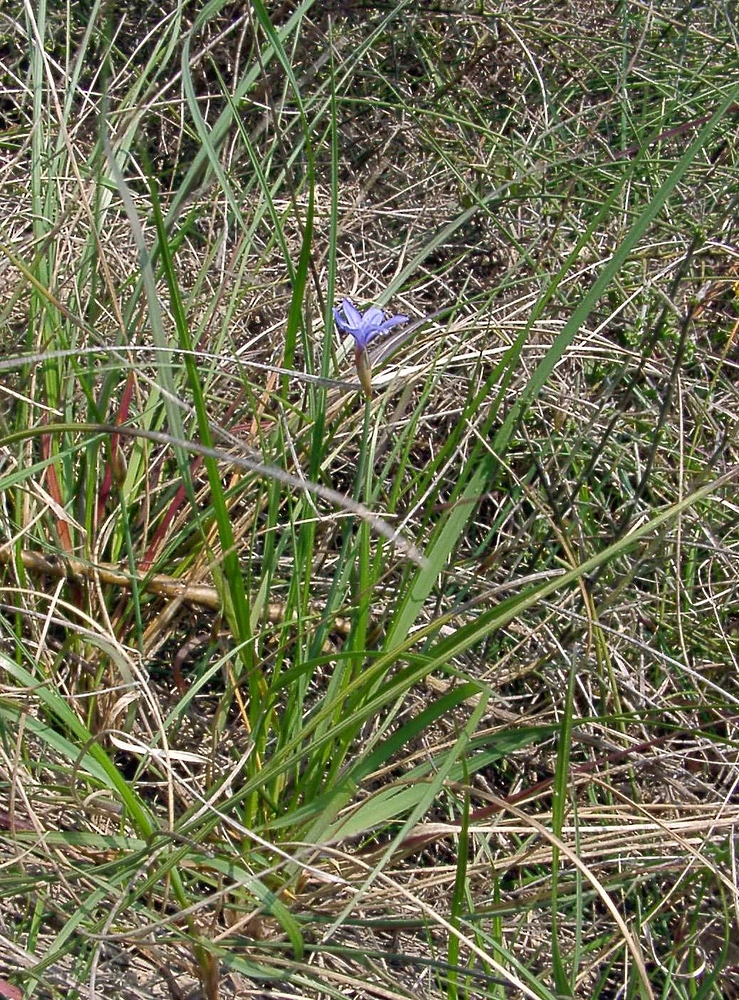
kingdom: Plantae
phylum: Tracheophyta
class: Liliopsida
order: Asparagales
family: Asparagaceae
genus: Aphyllanthes
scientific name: Aphyllanthes monspeliensis
